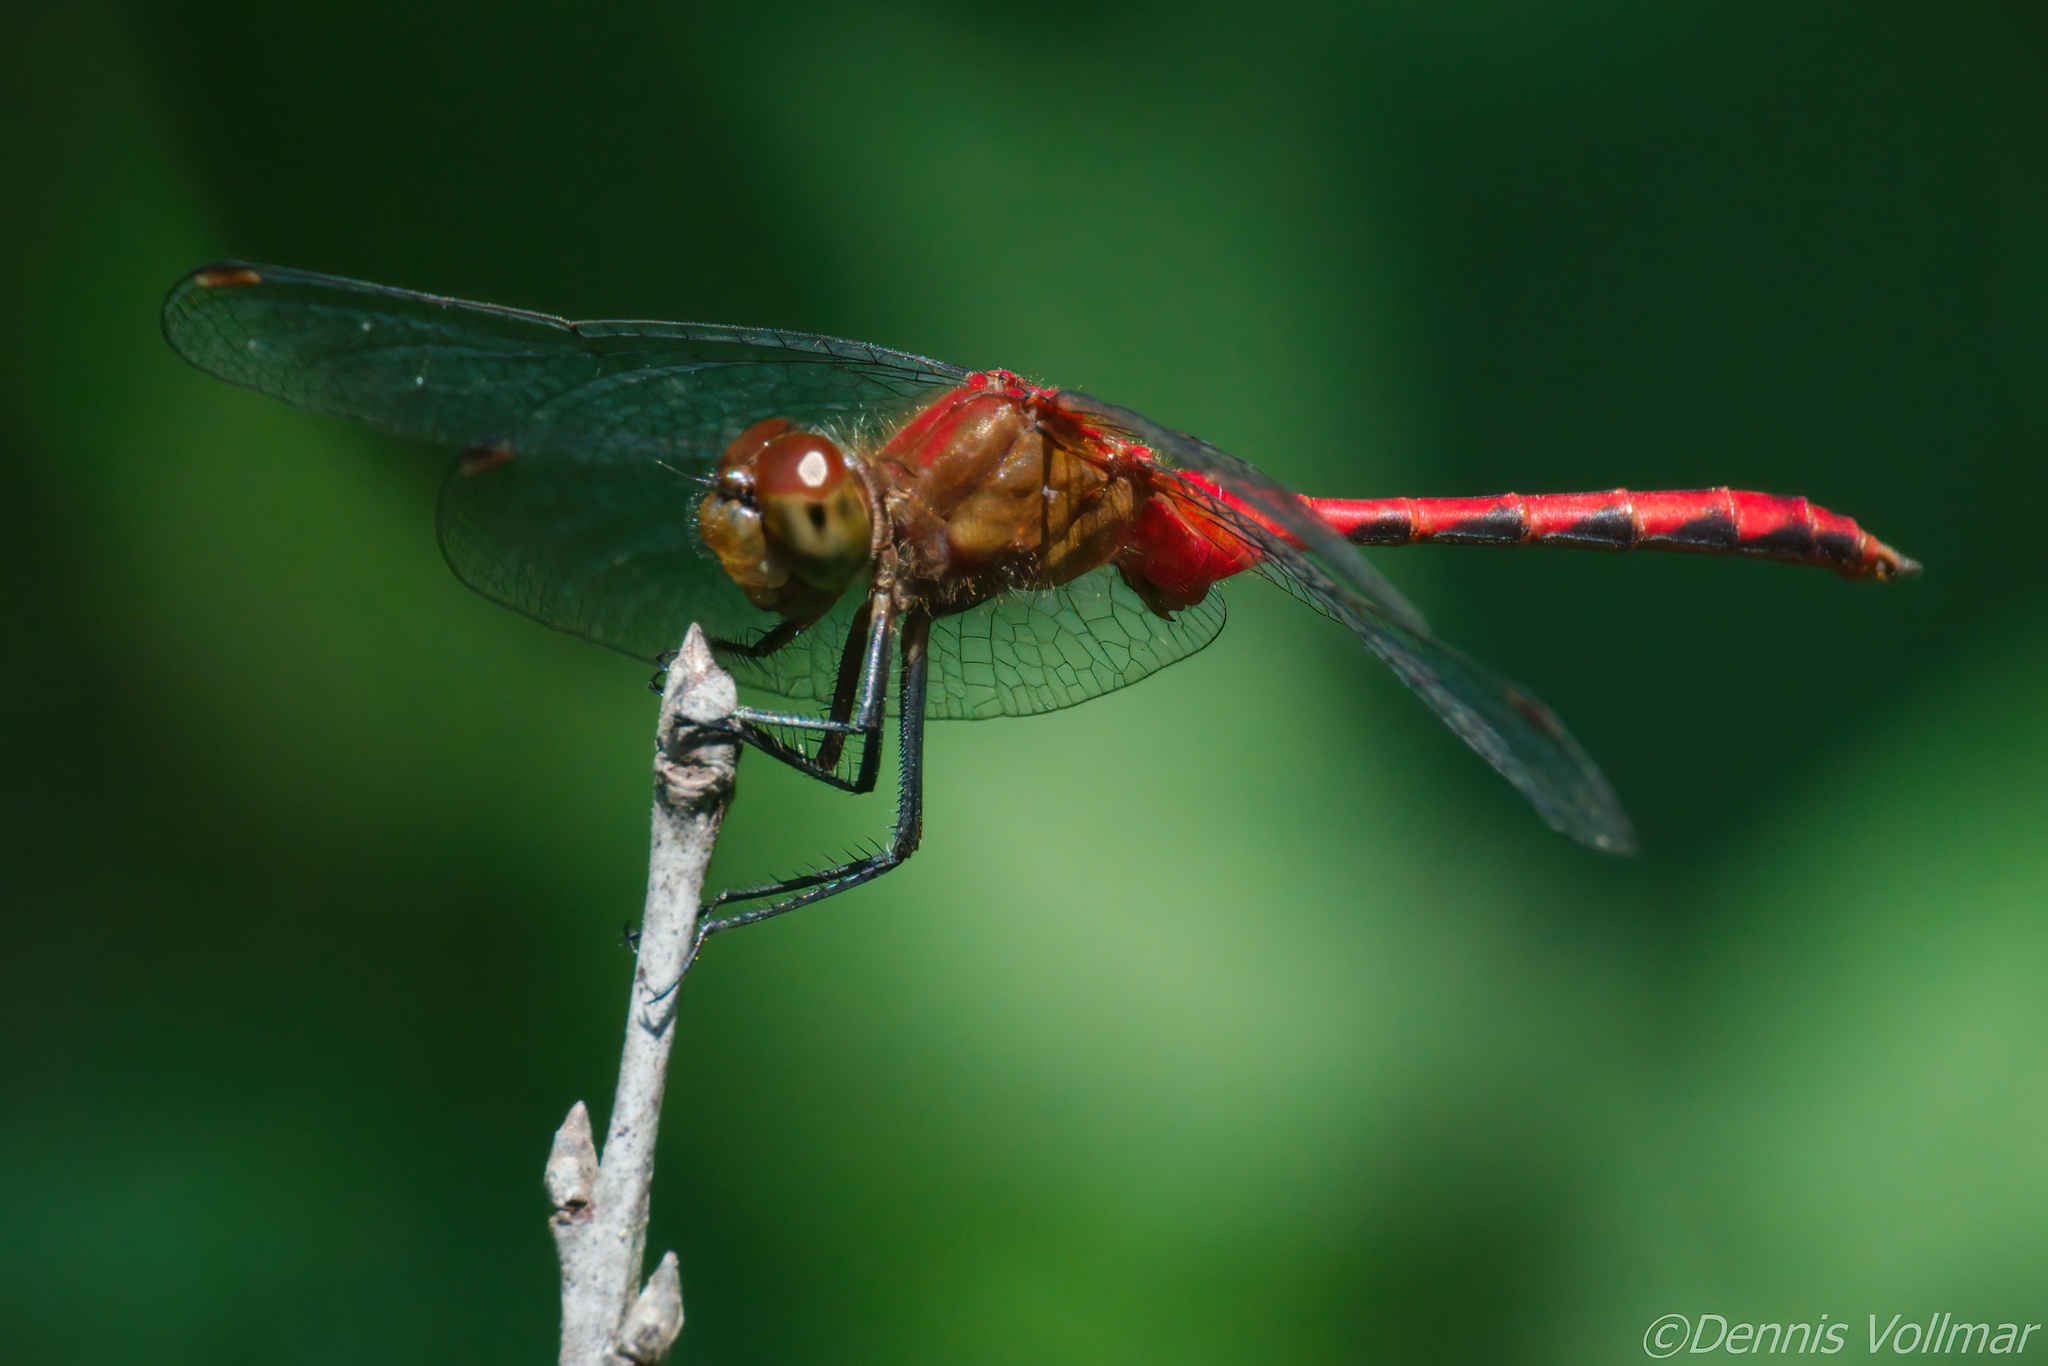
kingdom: Animalia
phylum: Arthropoda
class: Insecta
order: Odonata
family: Libellulidae
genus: Sympetrum
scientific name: Sympetrum
